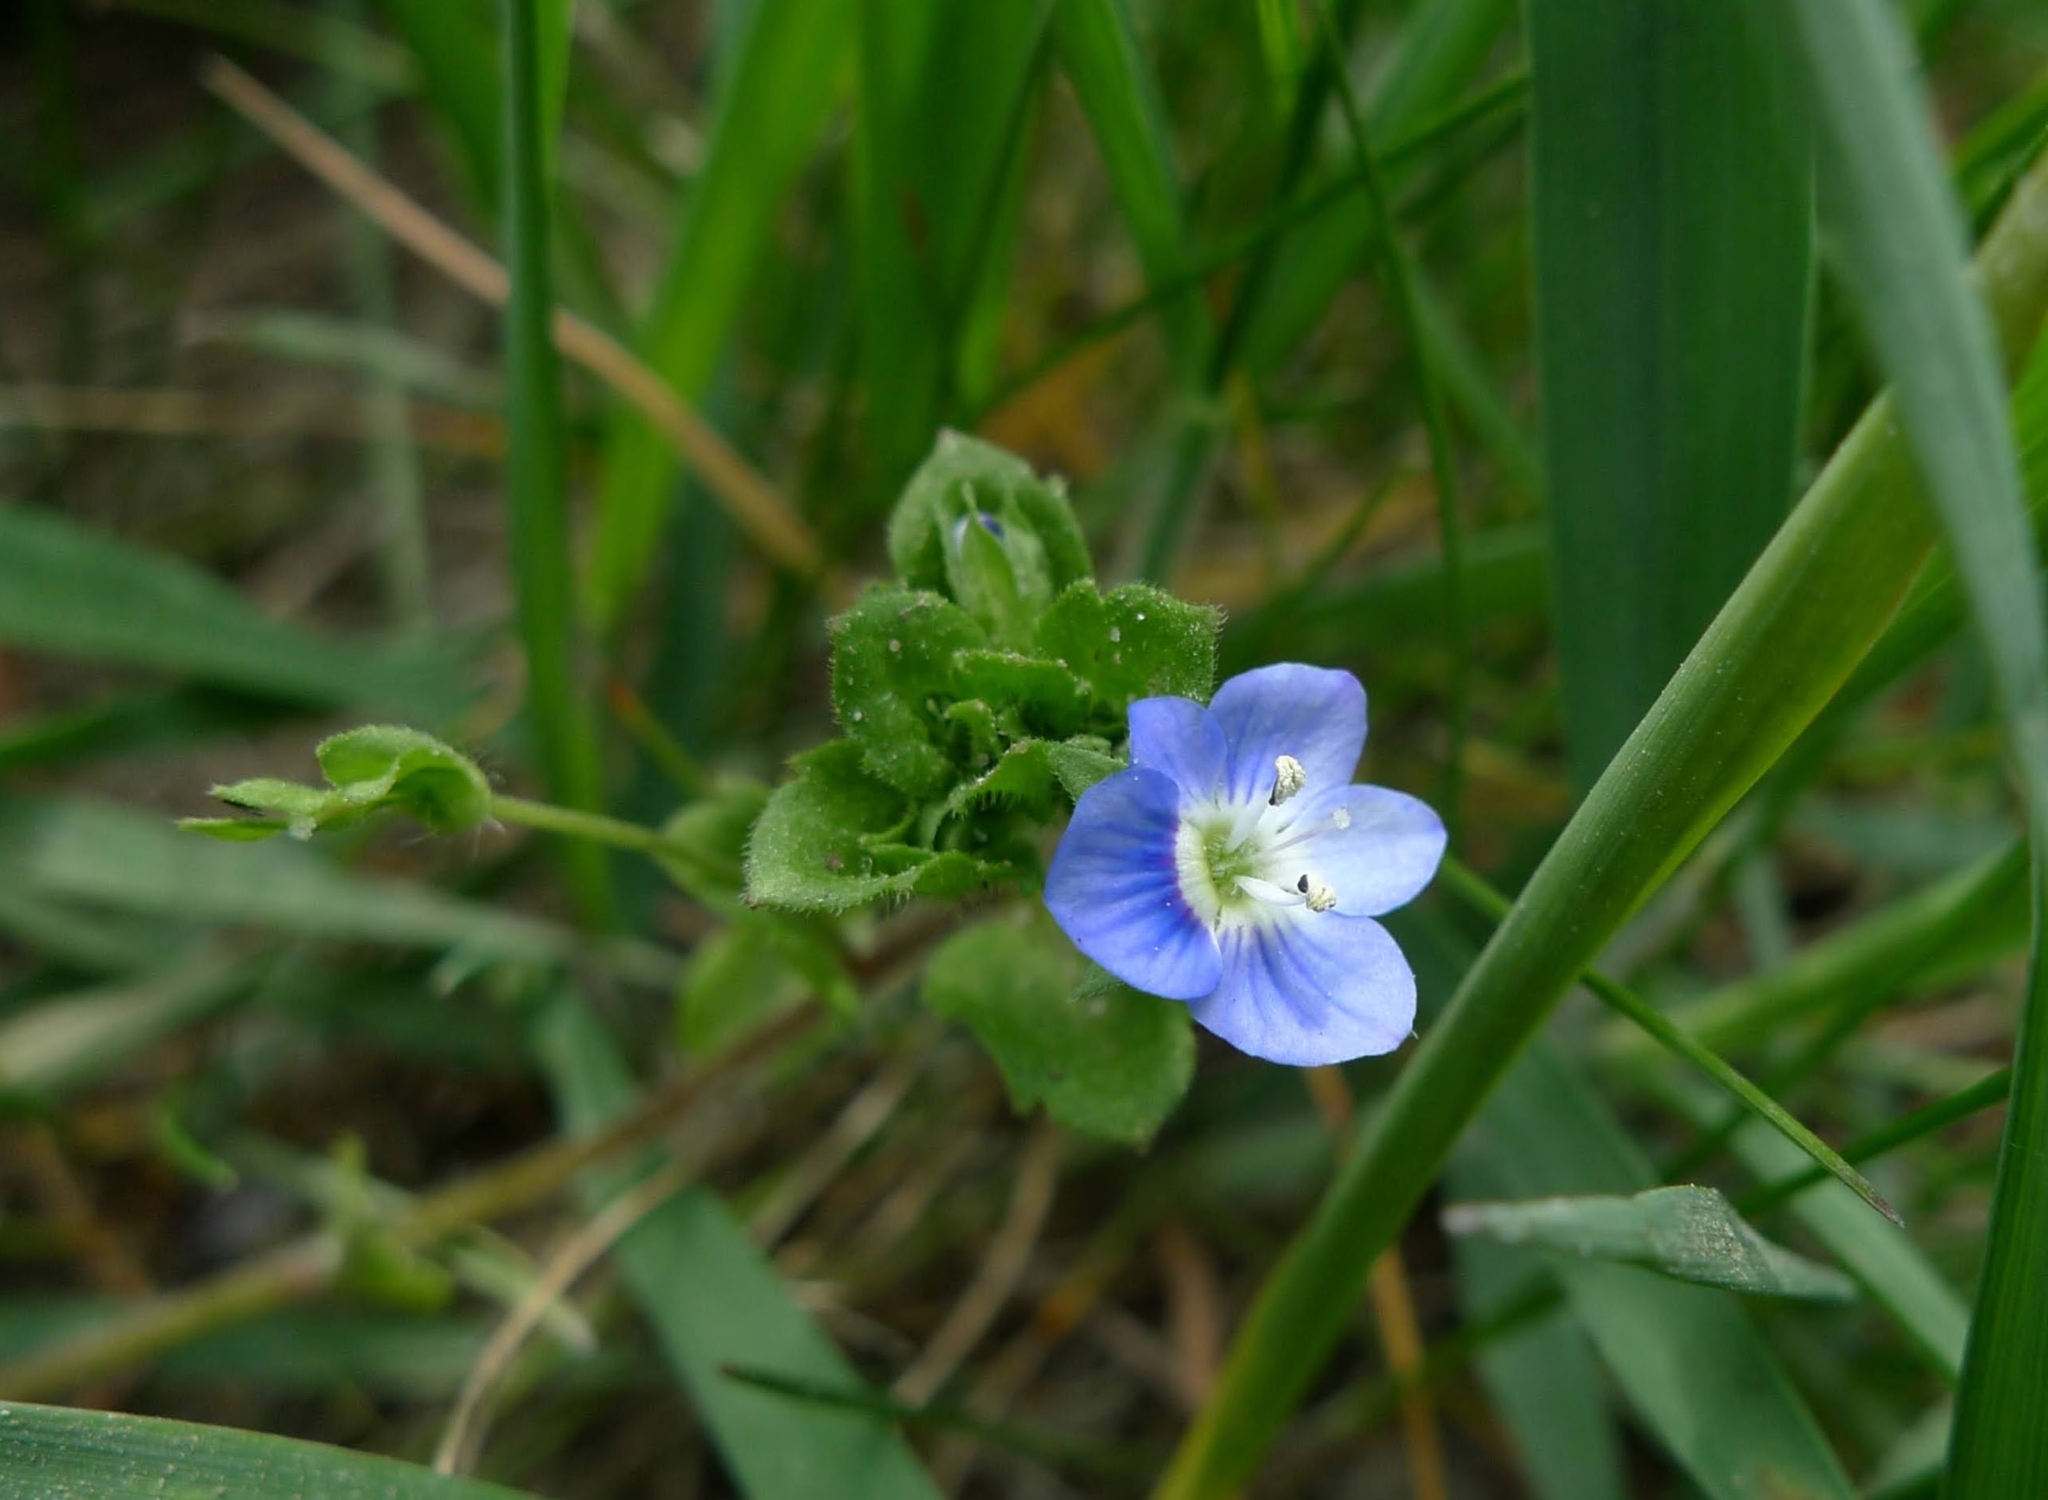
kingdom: Plantae
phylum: Tracheophyta
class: Magnoliopsida
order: Lamiales
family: Plantaginaceae
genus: Veronica
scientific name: Veronica persica
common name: Common field-speedwell
